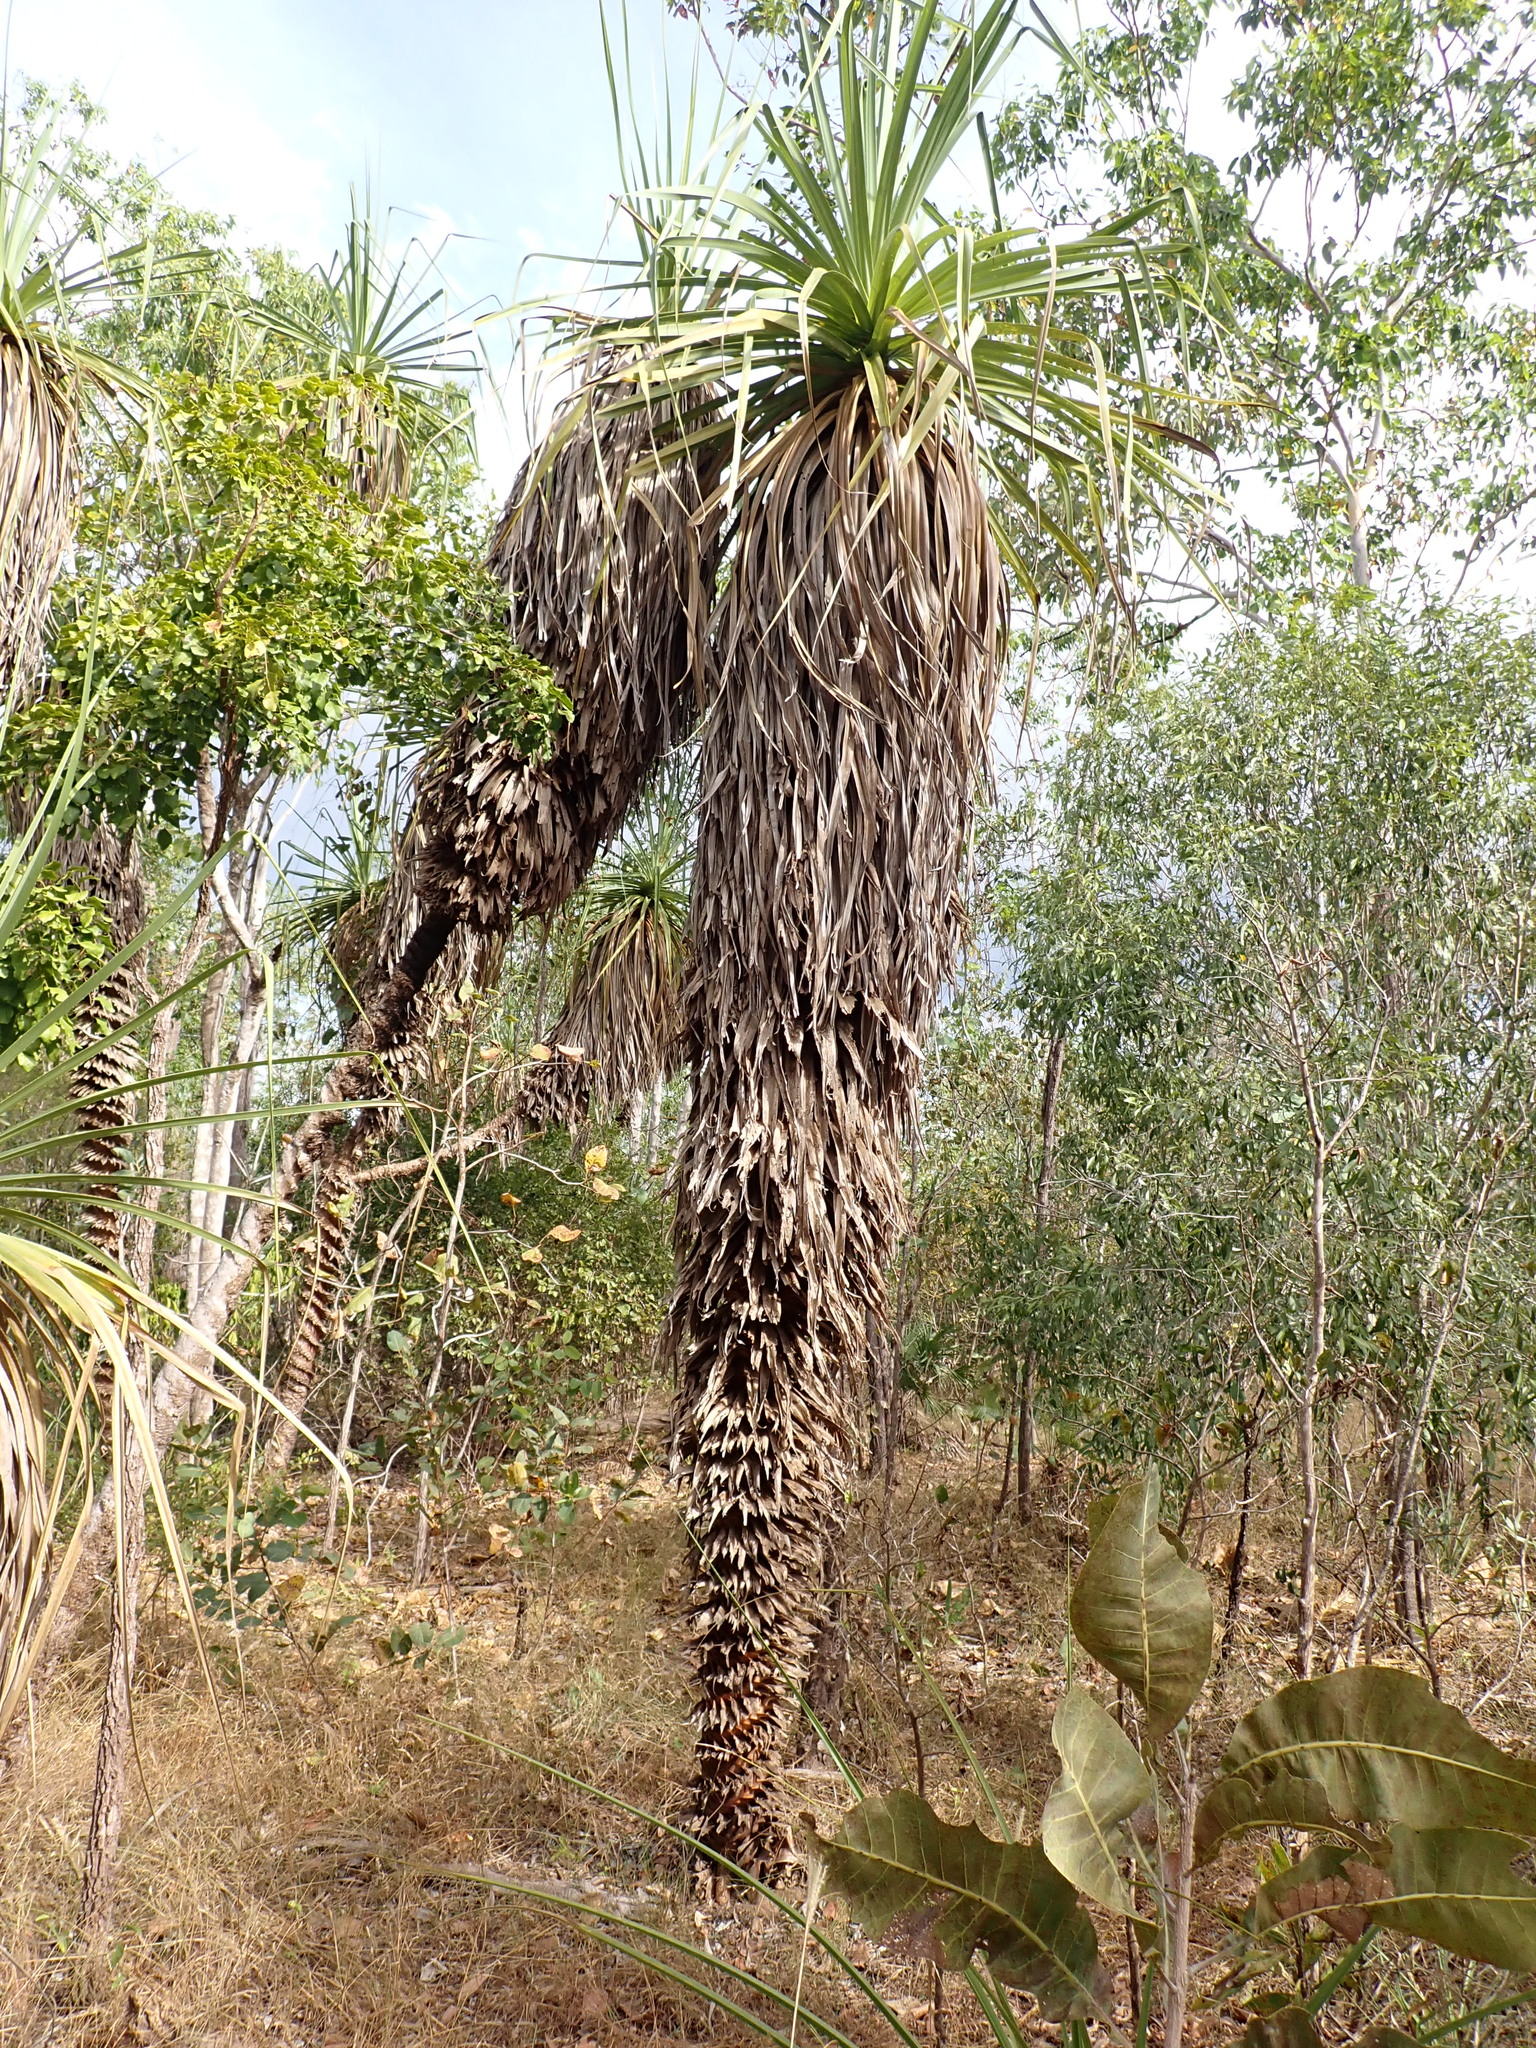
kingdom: Plantae
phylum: Tracheophyta
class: Liliopsida
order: Pandanales
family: Pandanaceae
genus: Pandanus
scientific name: Pandanus spiralis
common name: Screw-pine
